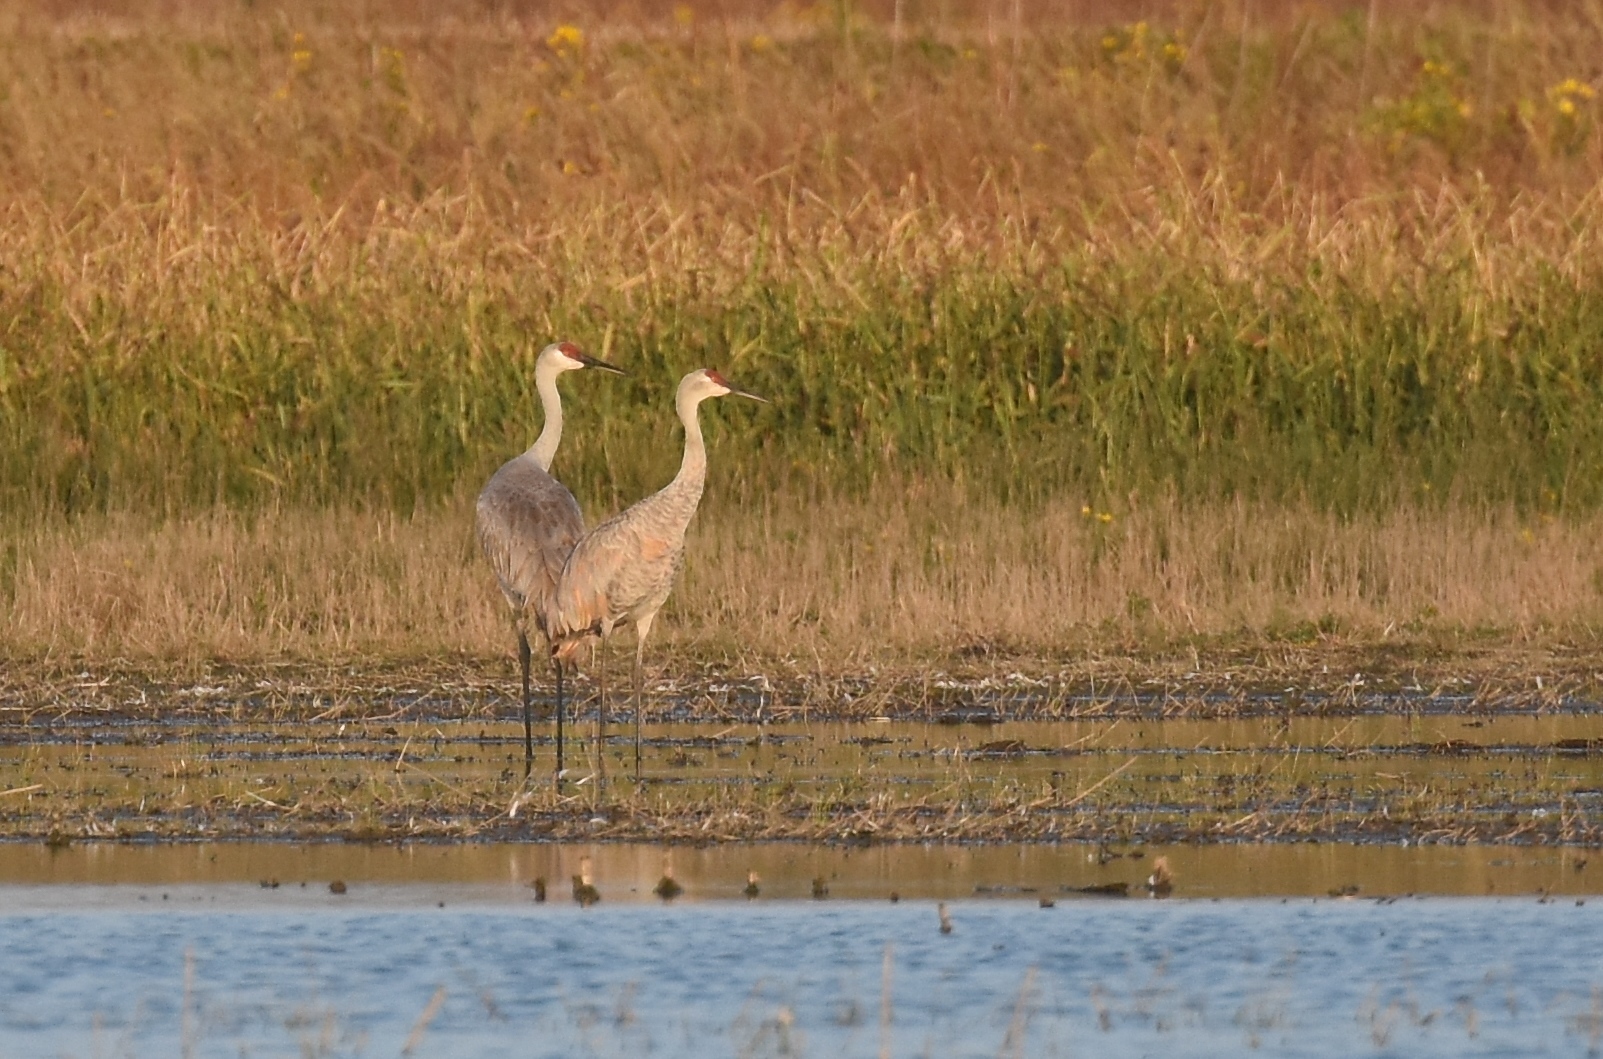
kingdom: Animalia
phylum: Chordata
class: Aves
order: Gruiformes
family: Gruidae
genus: Grus
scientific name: Grus canadensis
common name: Sandhill crane
